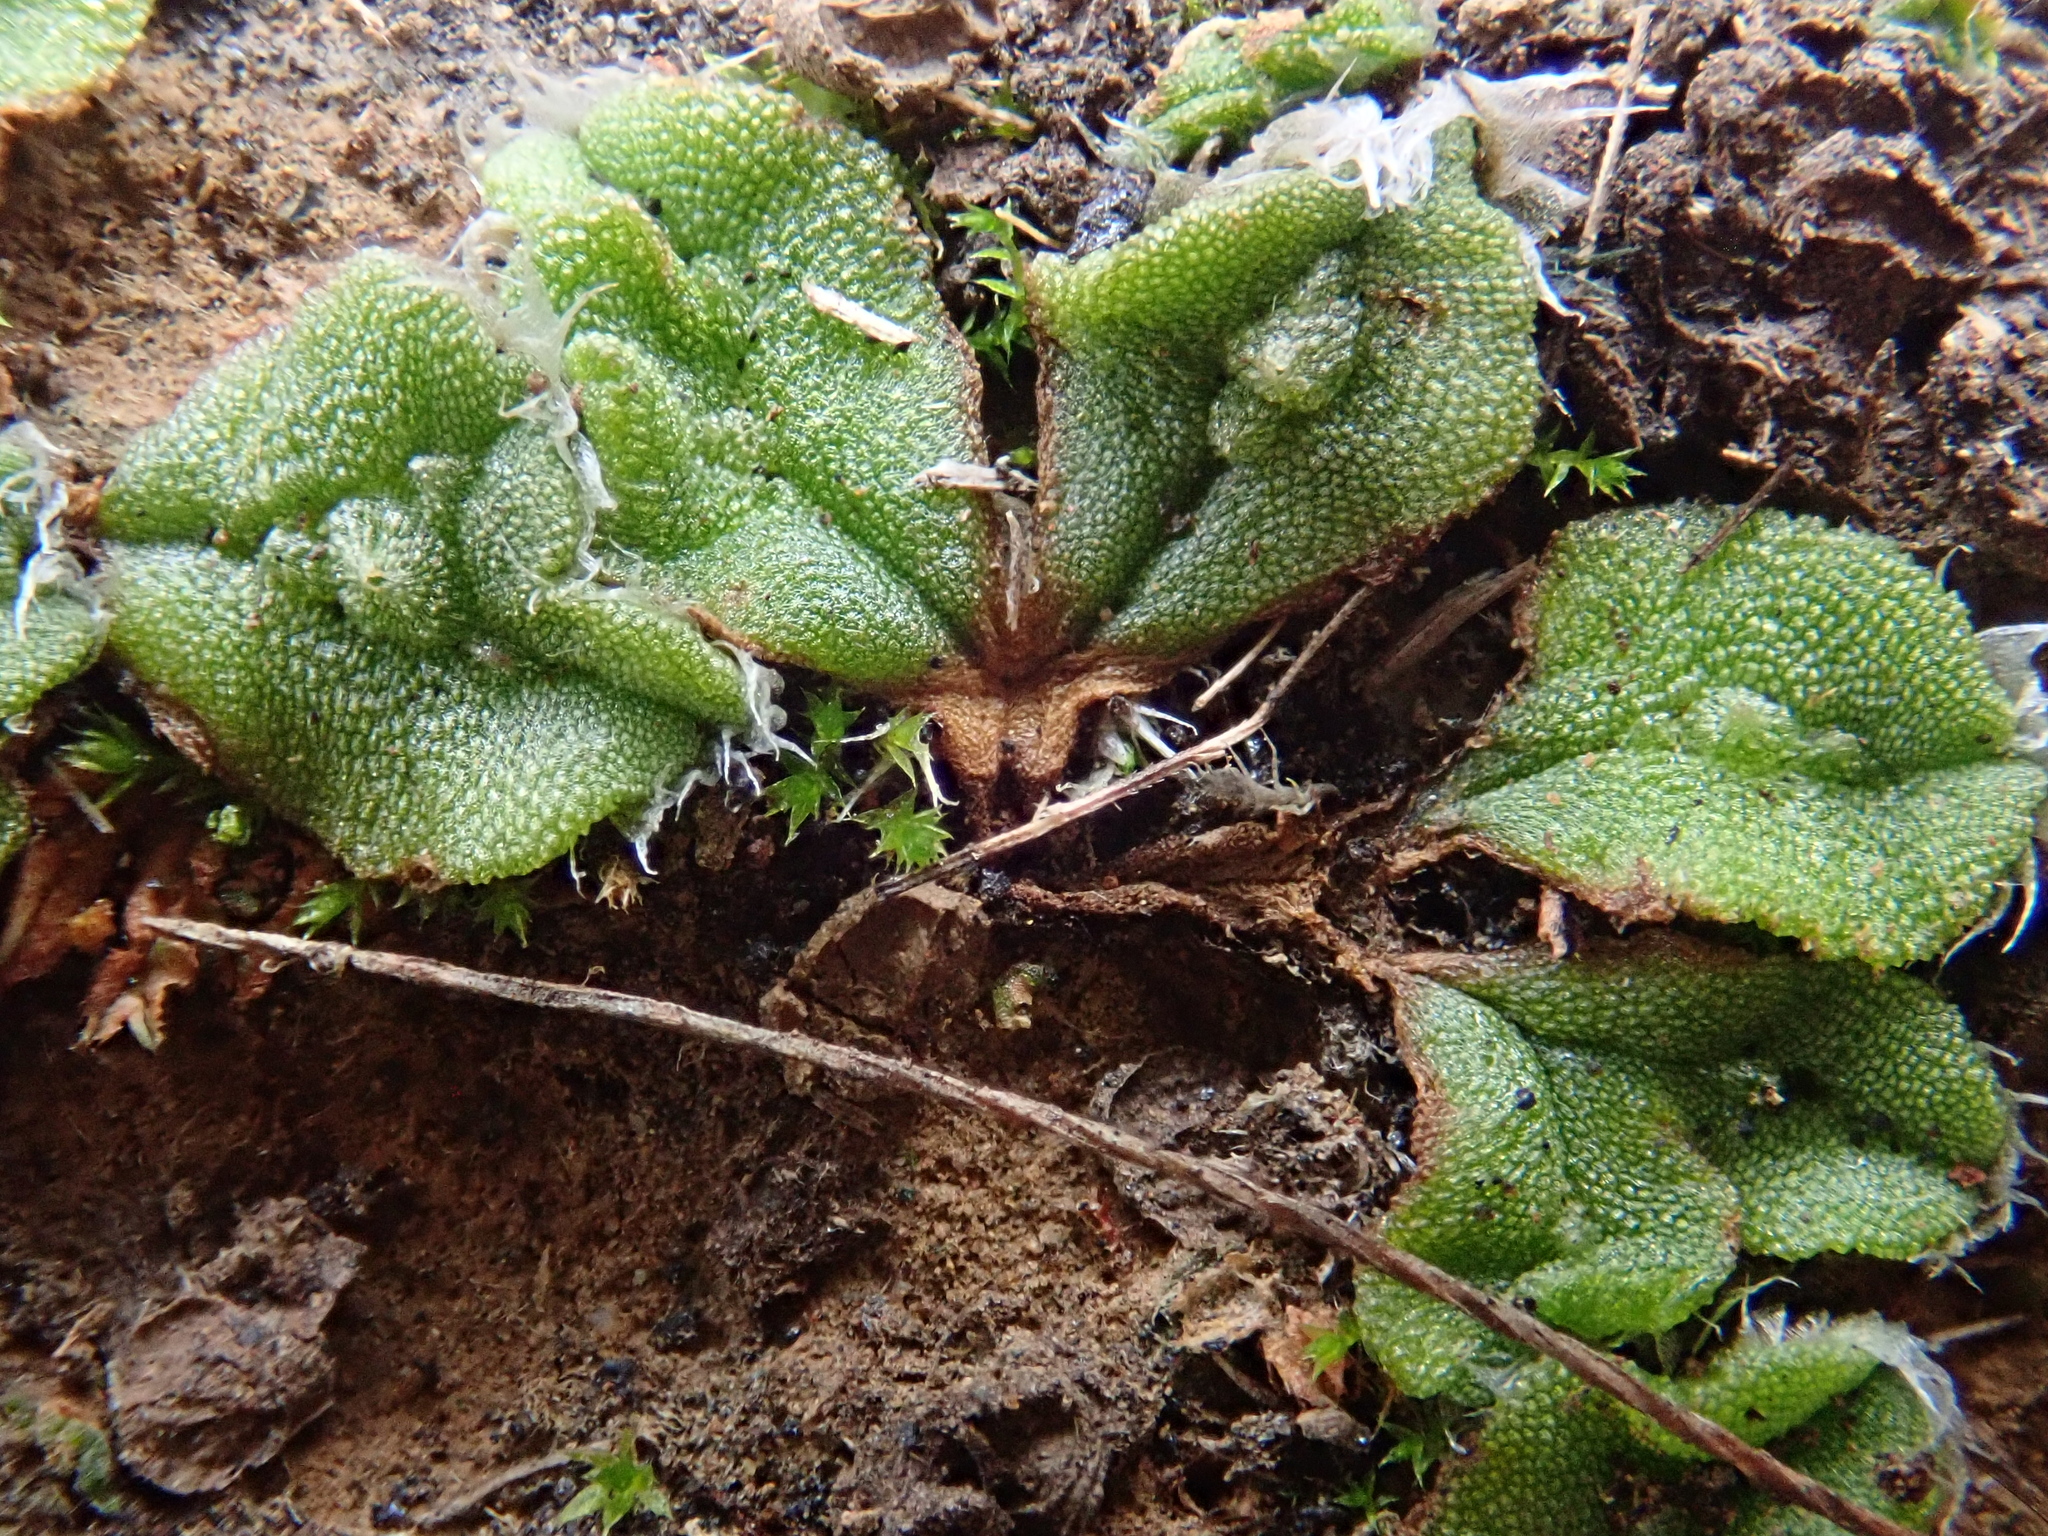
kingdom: Plantae
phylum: Marchantiophyta
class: Marchantiopsida
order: Marchantiales
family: Ricciaceae
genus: Oxymitra
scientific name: Oxymitra incrassata
